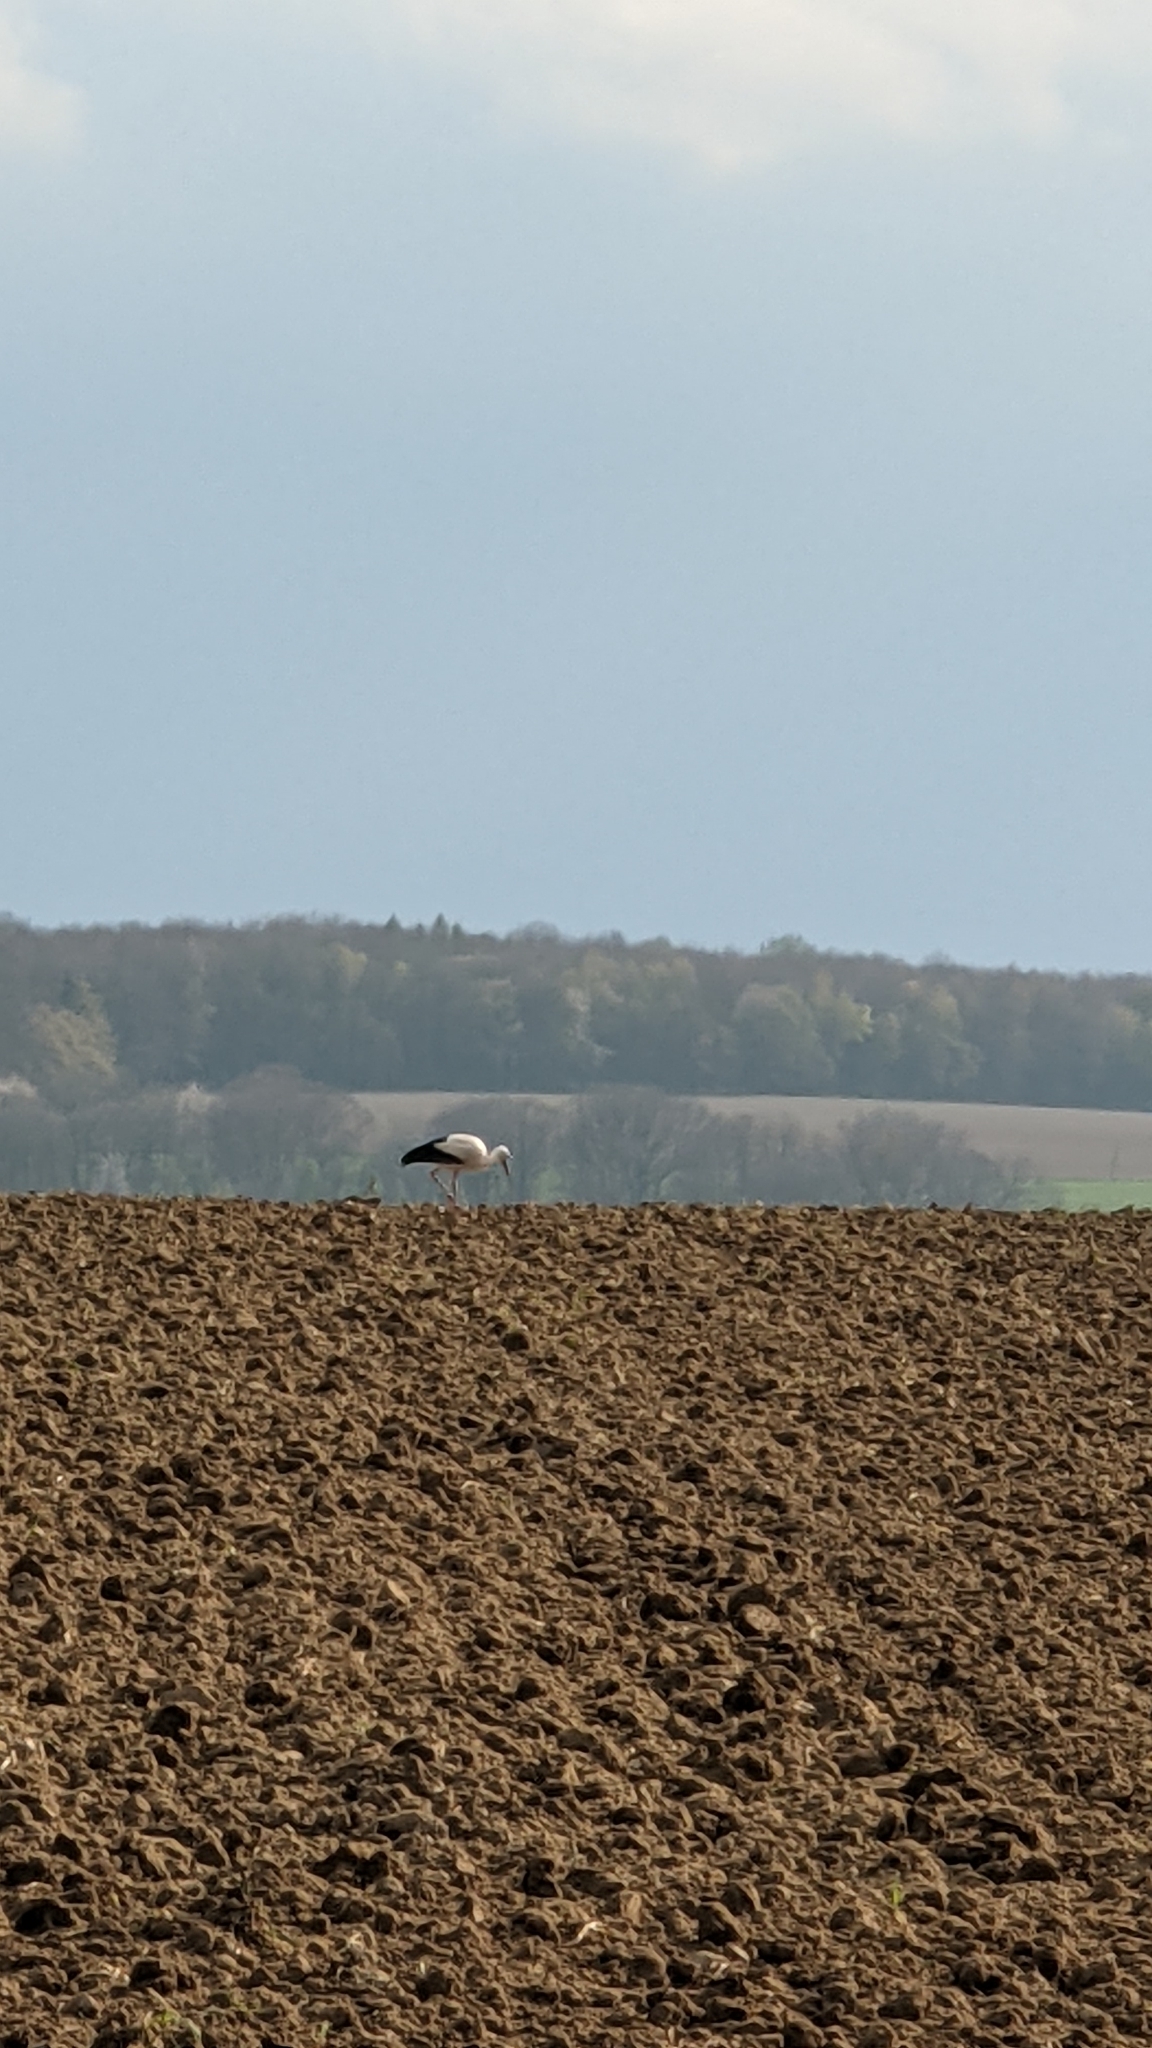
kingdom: Animalia
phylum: Chordata
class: Aves
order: Ciconiiformes
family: Ciconiidae
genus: Ciconia
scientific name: Ciconia ciconia
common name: White stork
